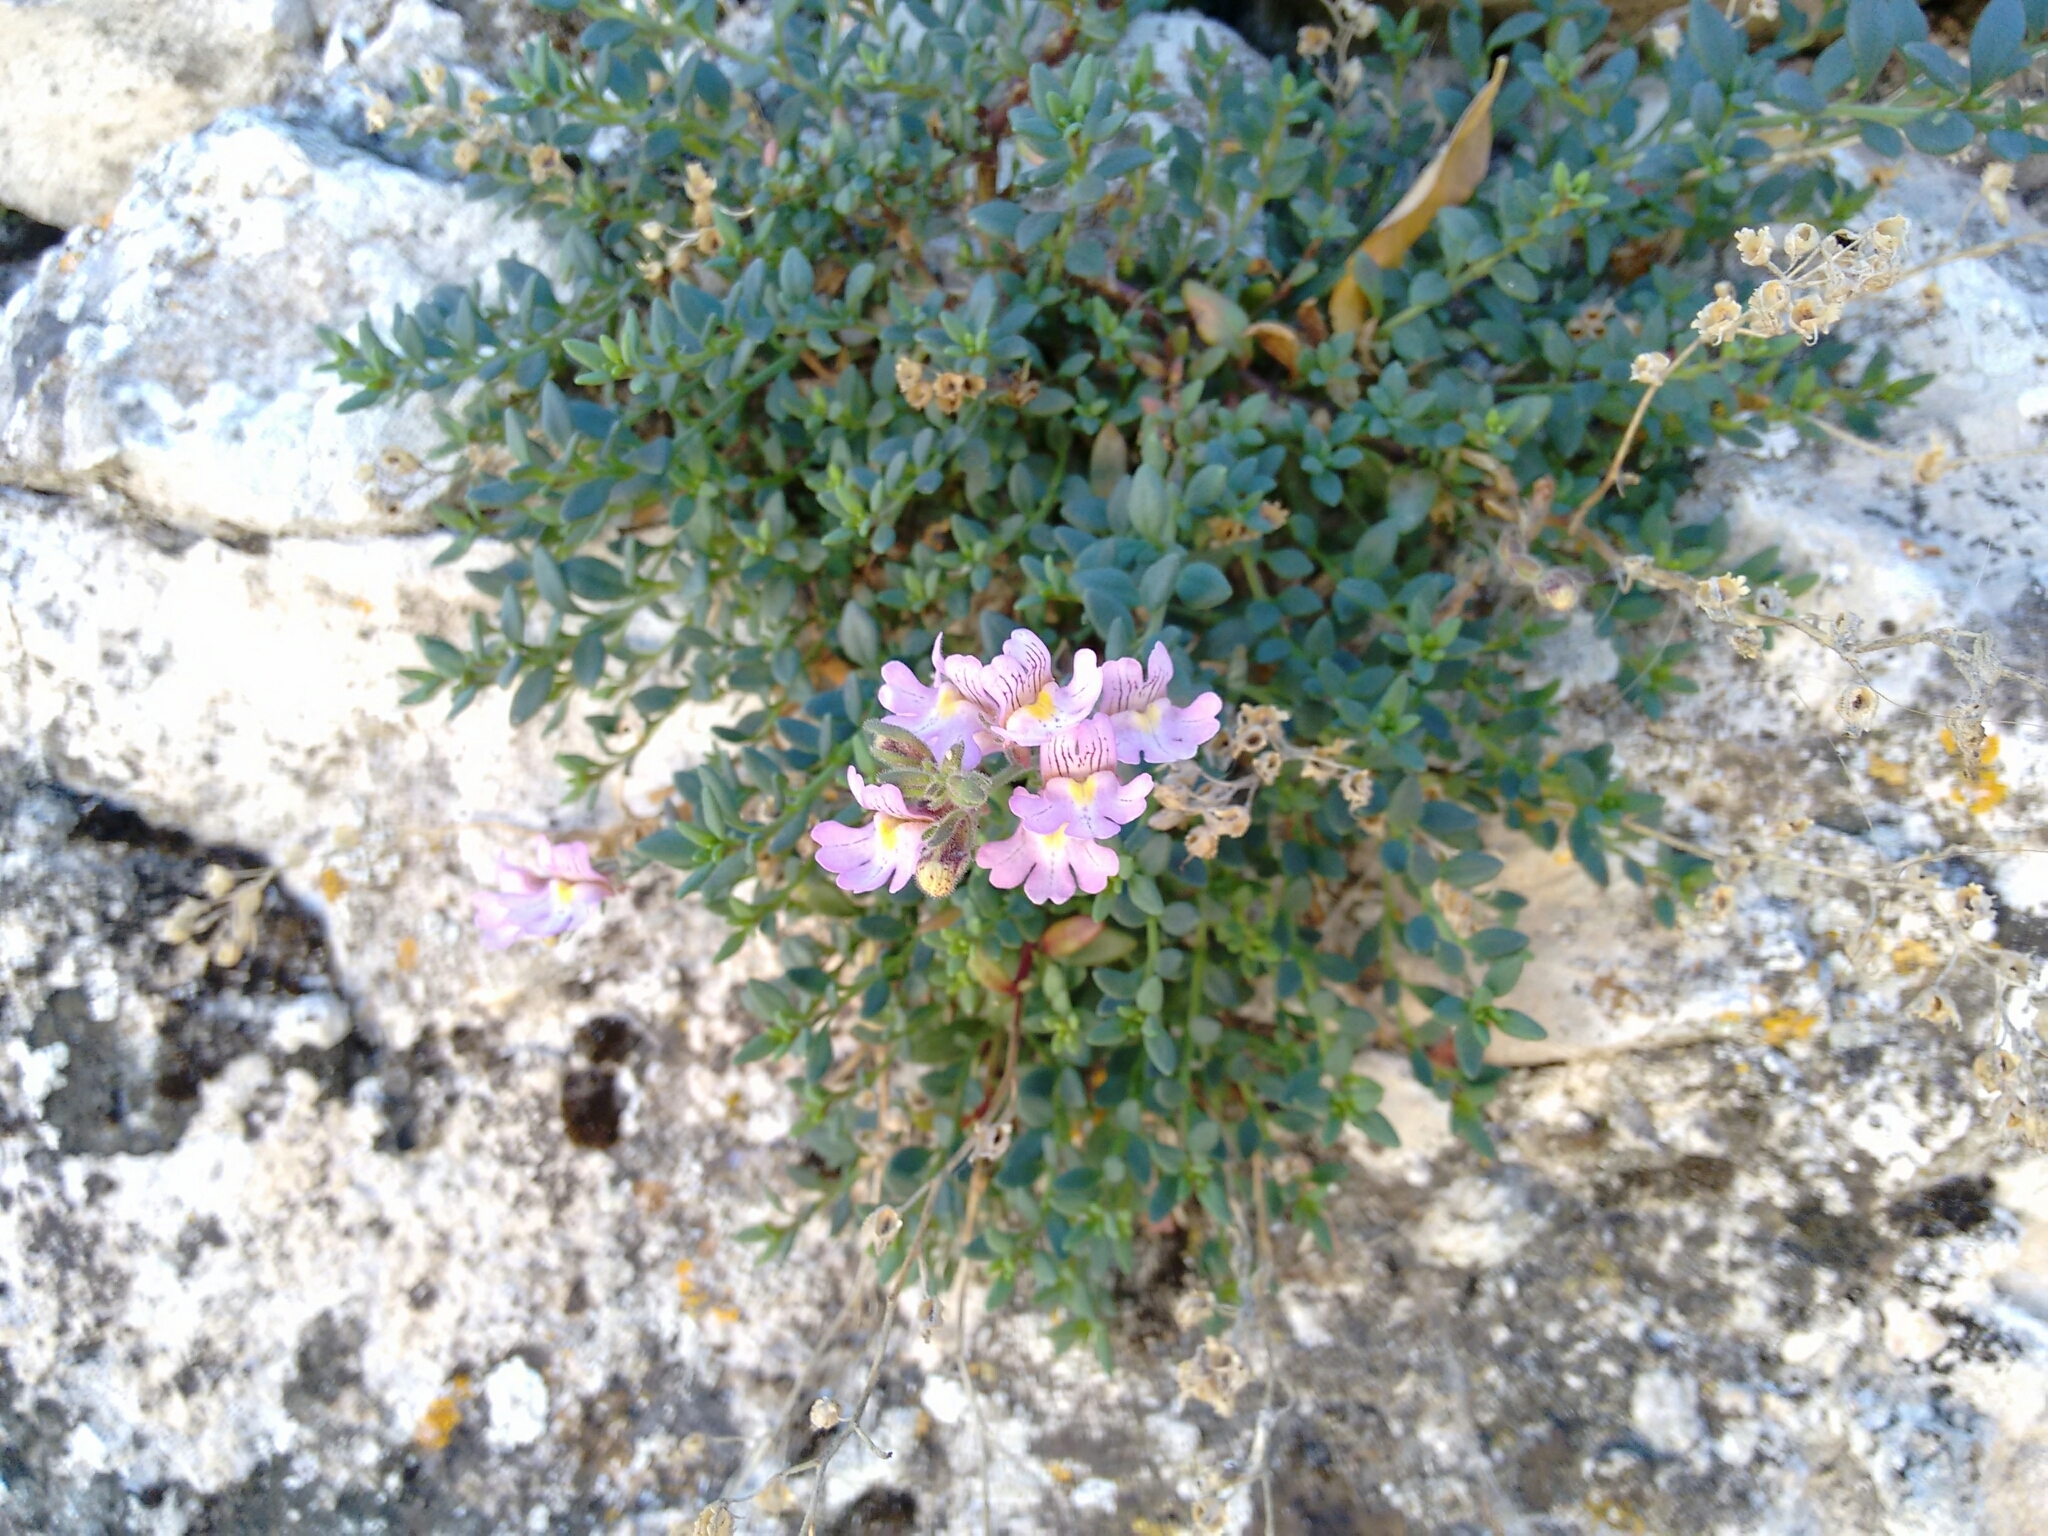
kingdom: Plantae
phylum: Tracheophyta
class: Magnoliopsida
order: Lamiales
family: Plantaginaceae
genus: Chaenorhinum
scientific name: Chaenorhinum origanifolium
